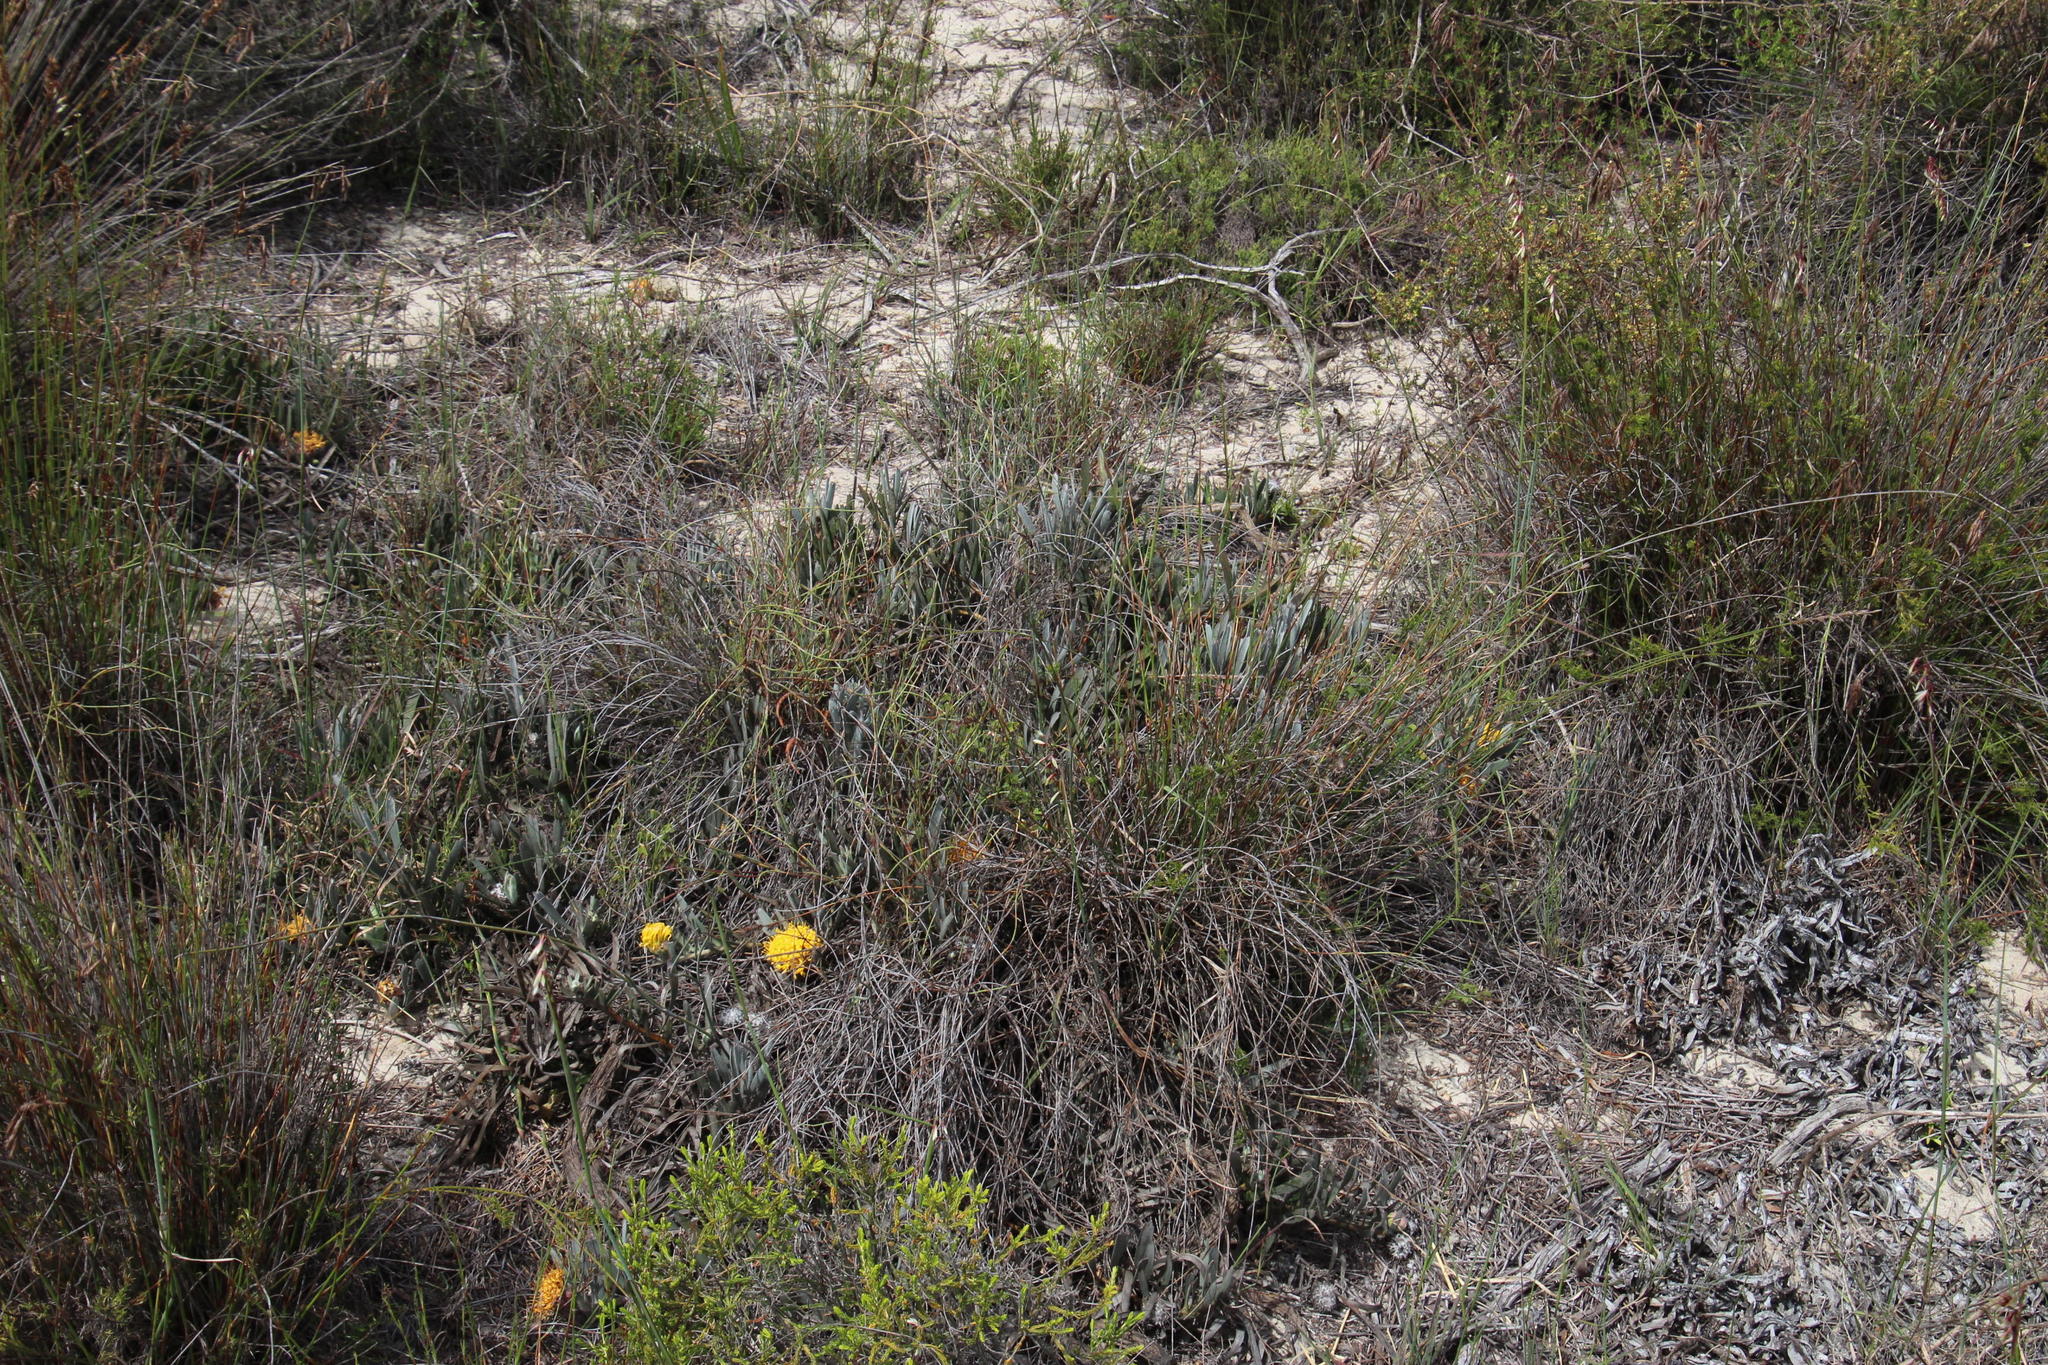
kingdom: Plantae
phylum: Tracheophyta
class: Magnoliopsida
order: Proteales
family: Proteaceae
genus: Leucospermum
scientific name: Leucospermum hypophyllocarpodendron
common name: Snakestem pincushion
